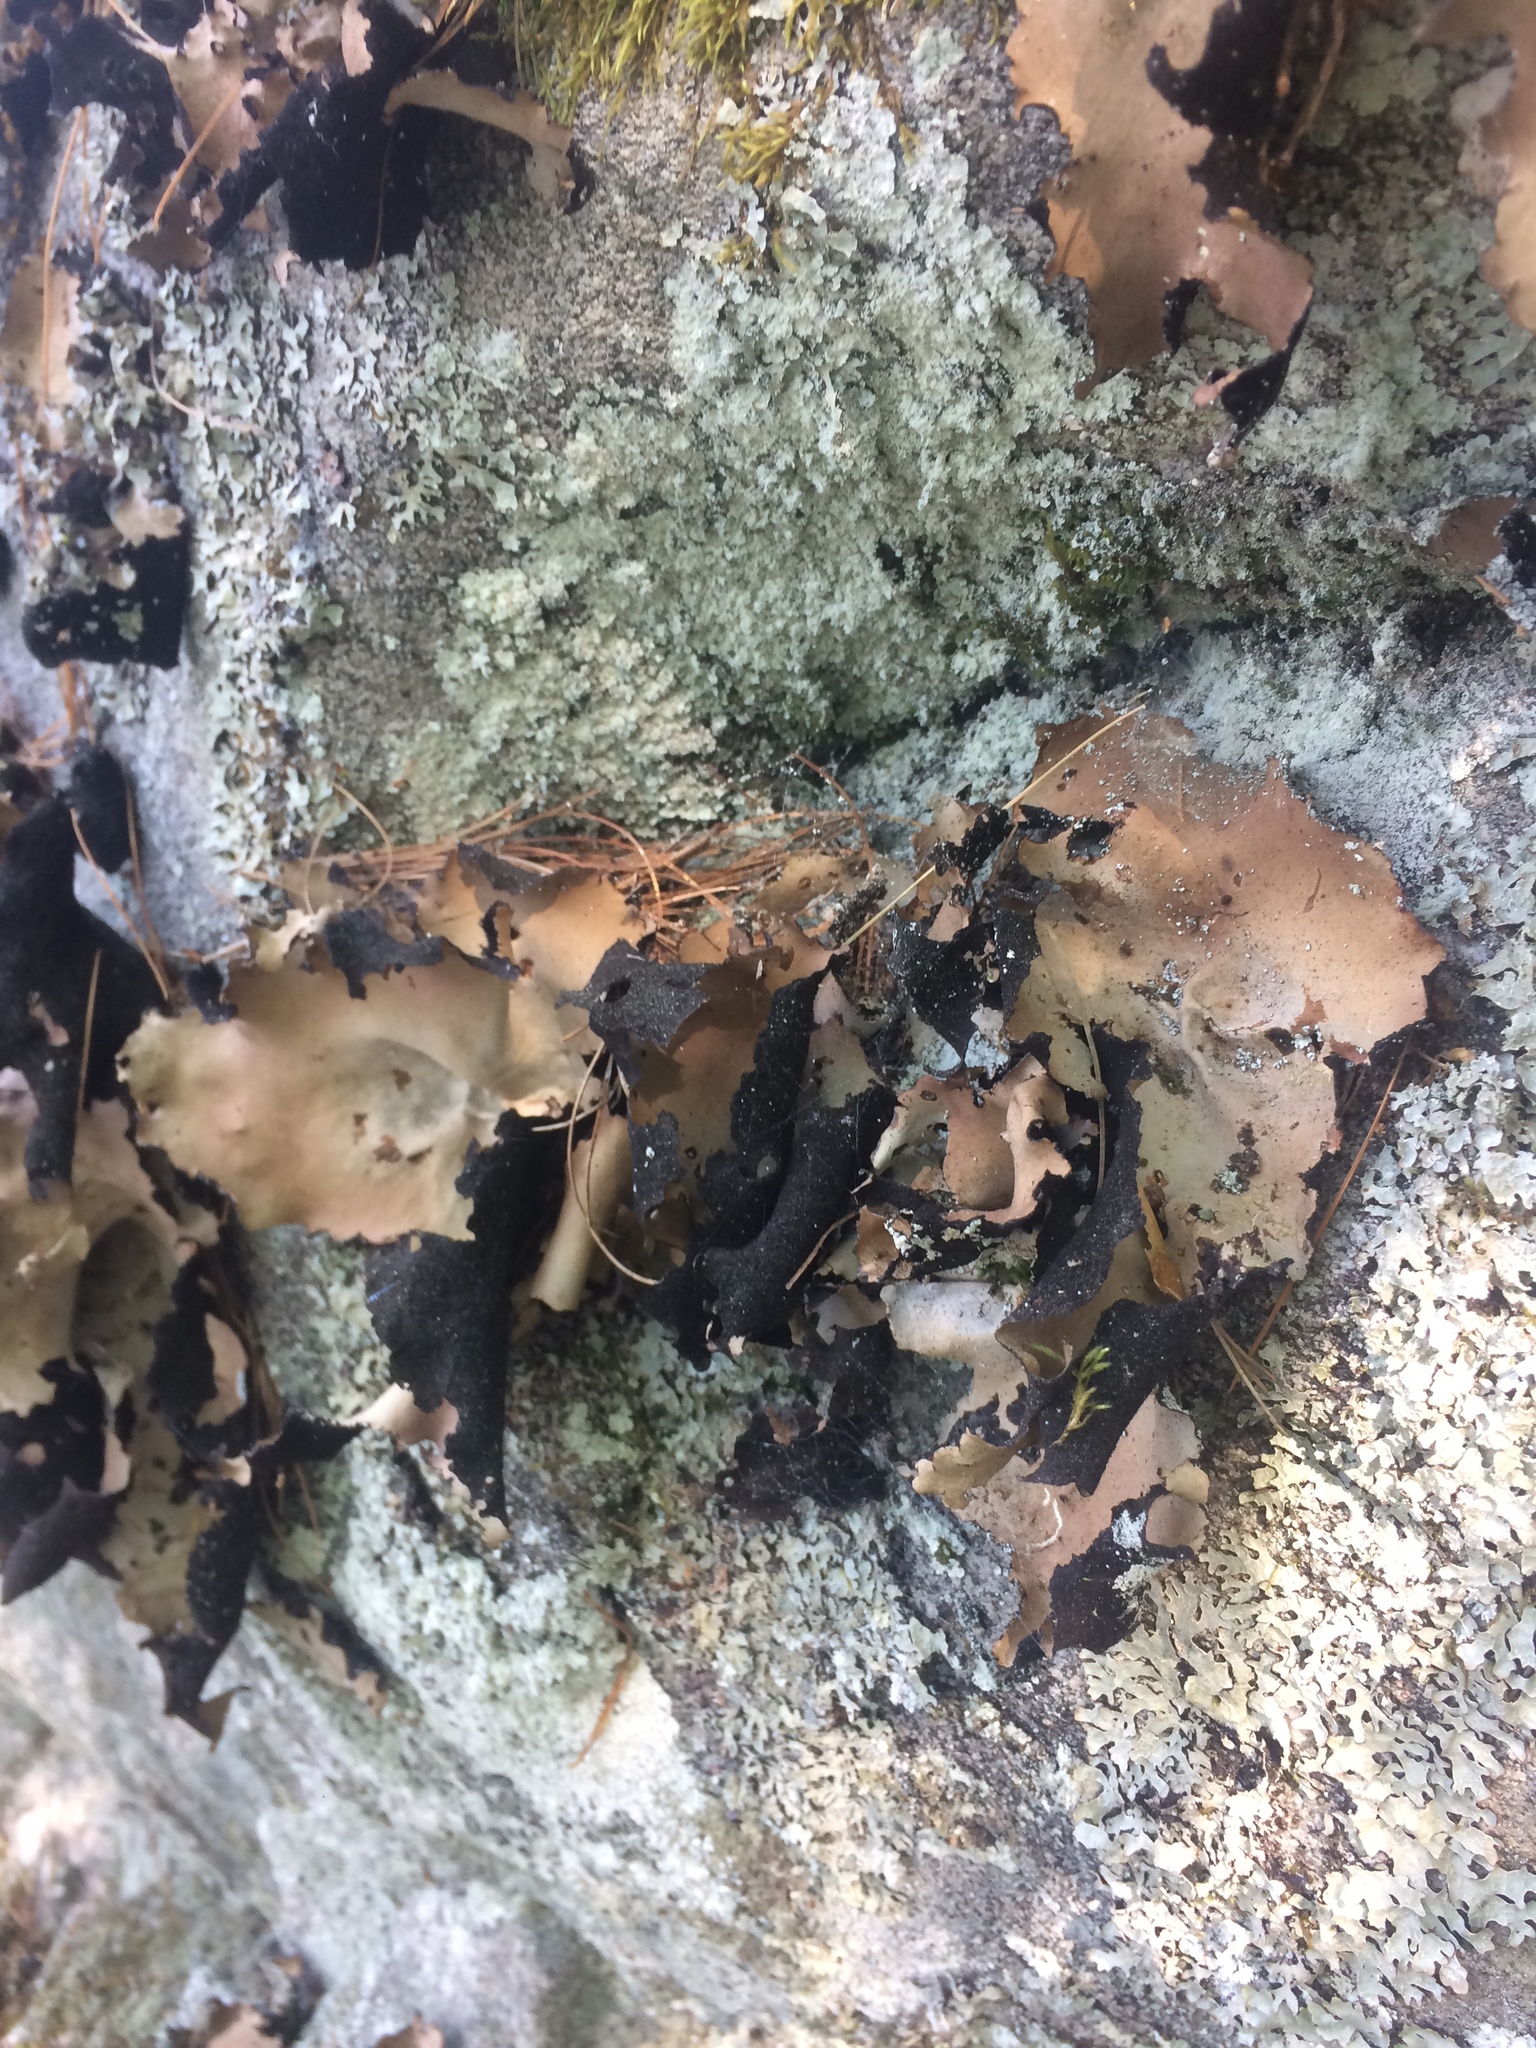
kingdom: Fungi
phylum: Ascomycota
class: Lecanoromycetes
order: Umbilicariales
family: Umbilicariaceae
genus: Umbilicaria
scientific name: Umbilicaria mammulata
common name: Smooth rock tripe
